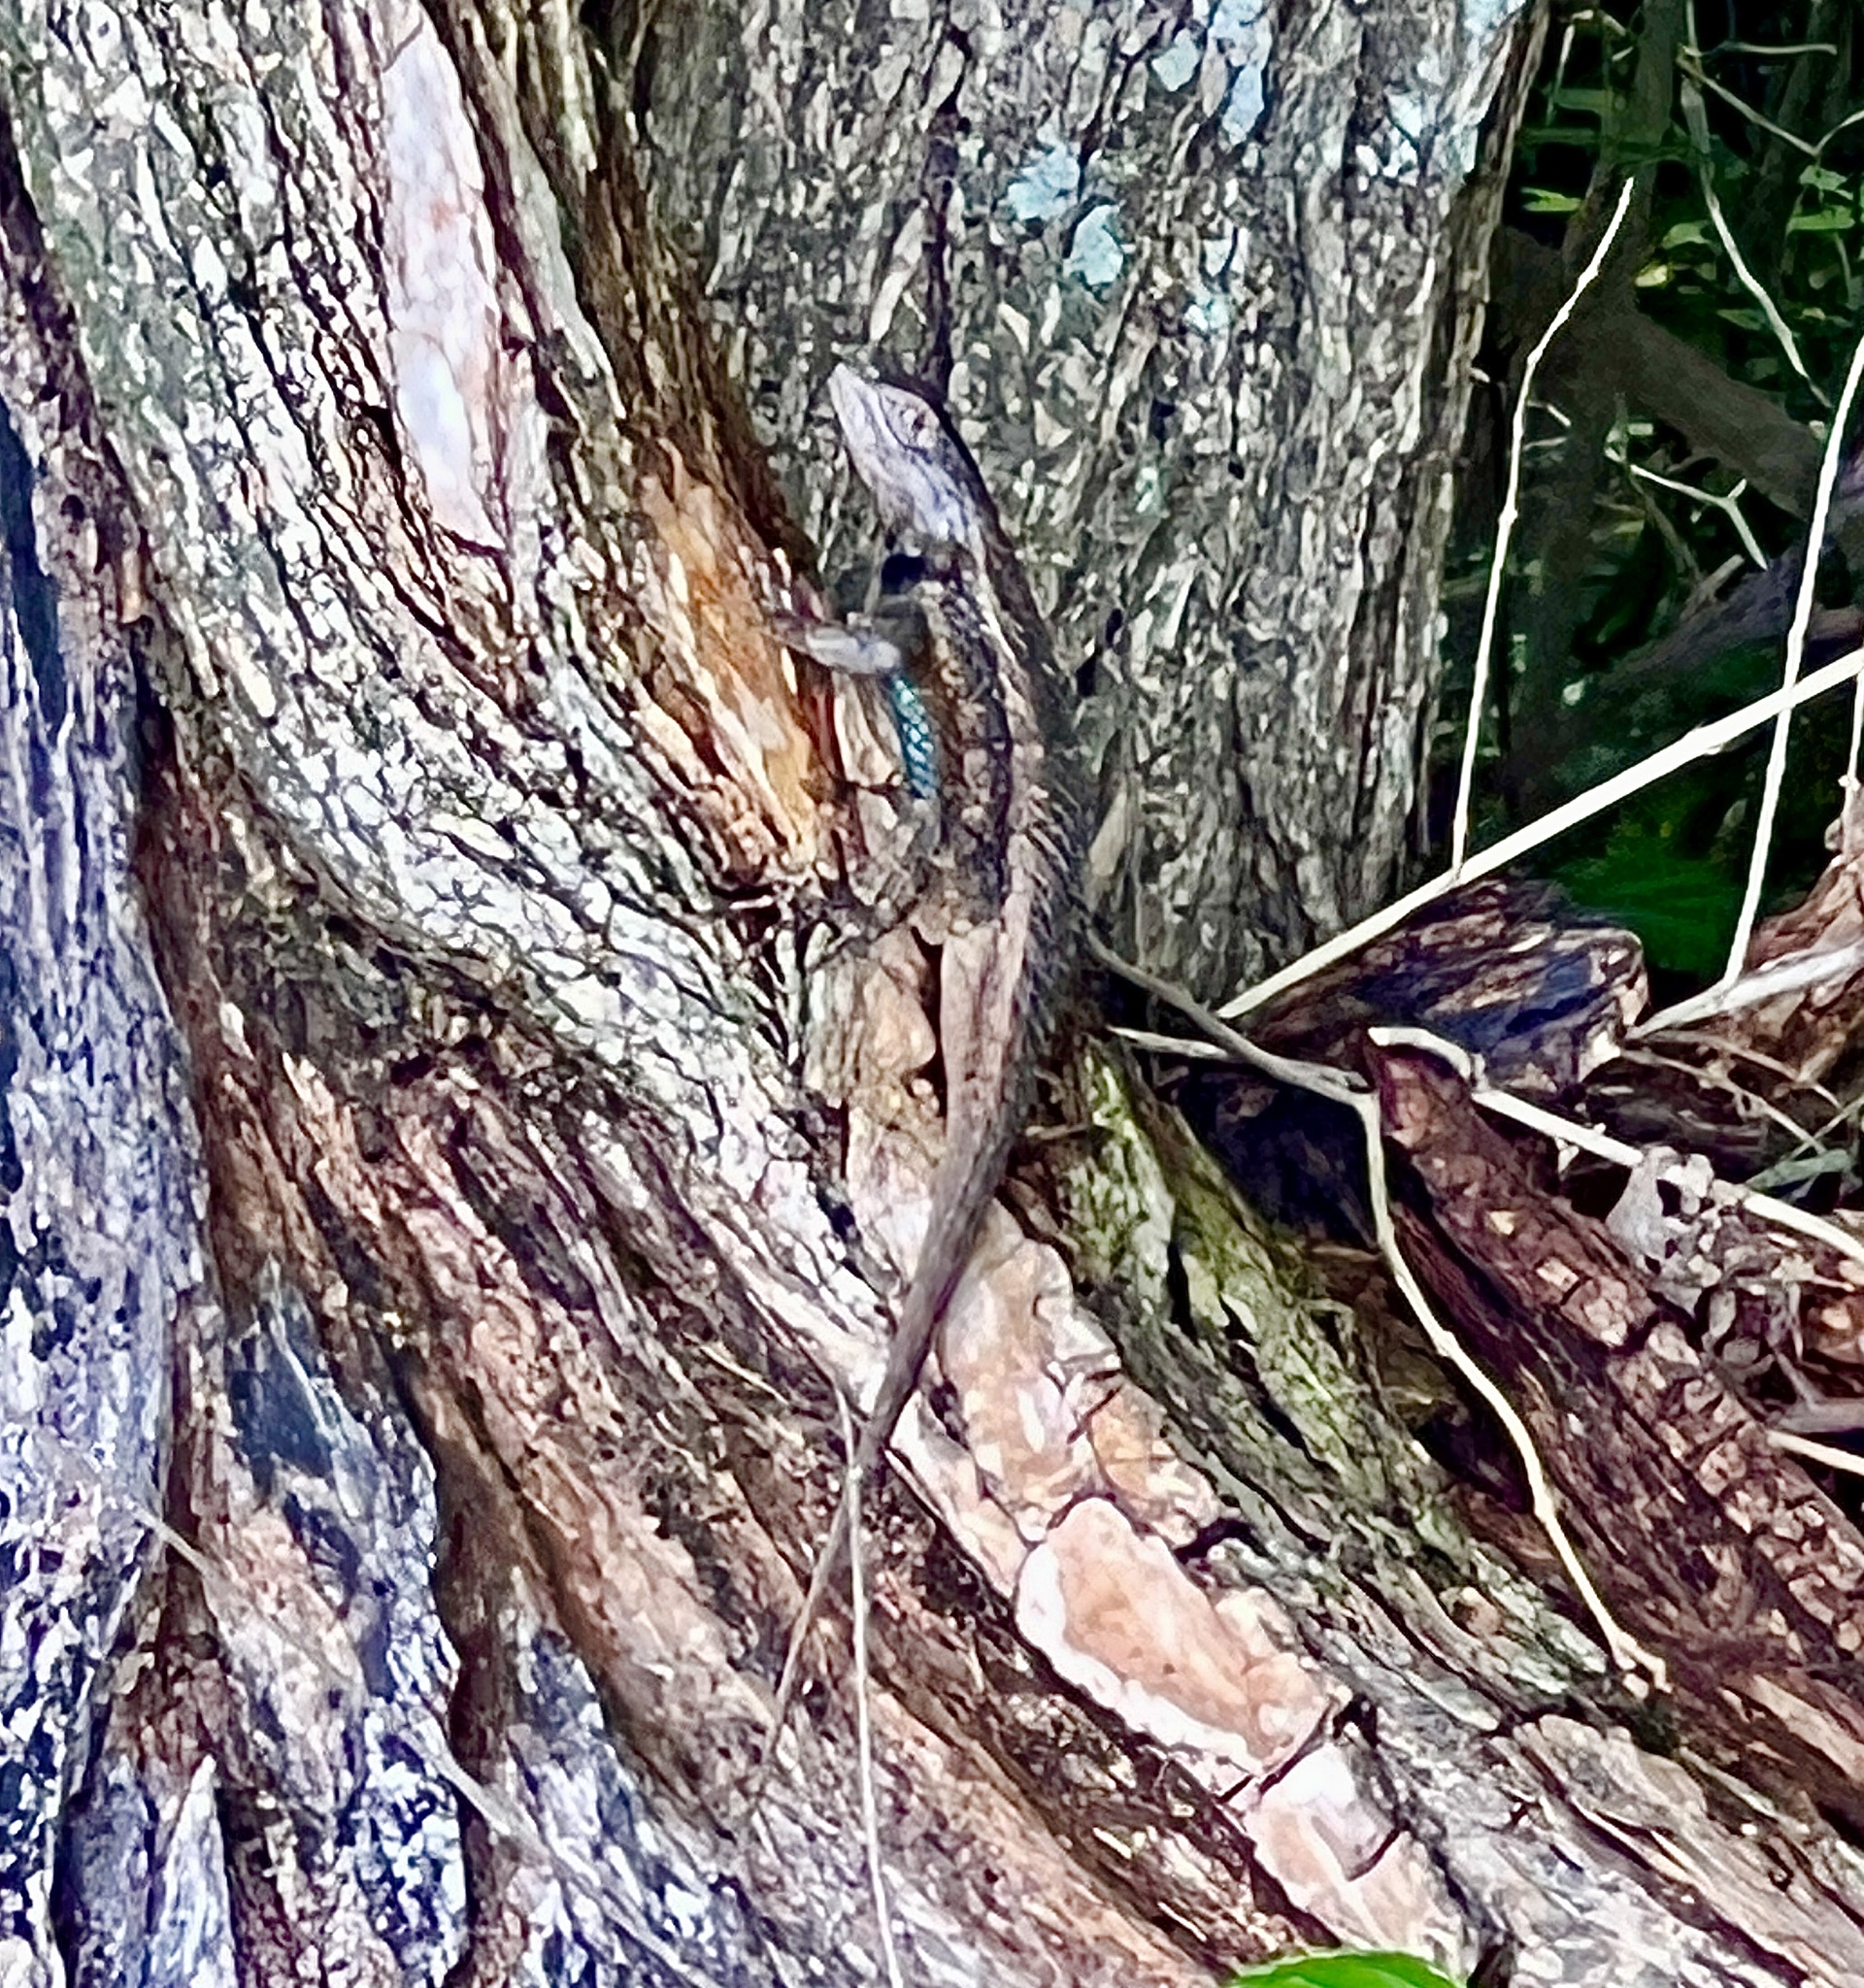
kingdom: Animalia
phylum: Chordata
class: Squamata
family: Phrynosomatidae
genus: Sceloporus
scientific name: Sceloporus olivaceus
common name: Texas spiny lizard
